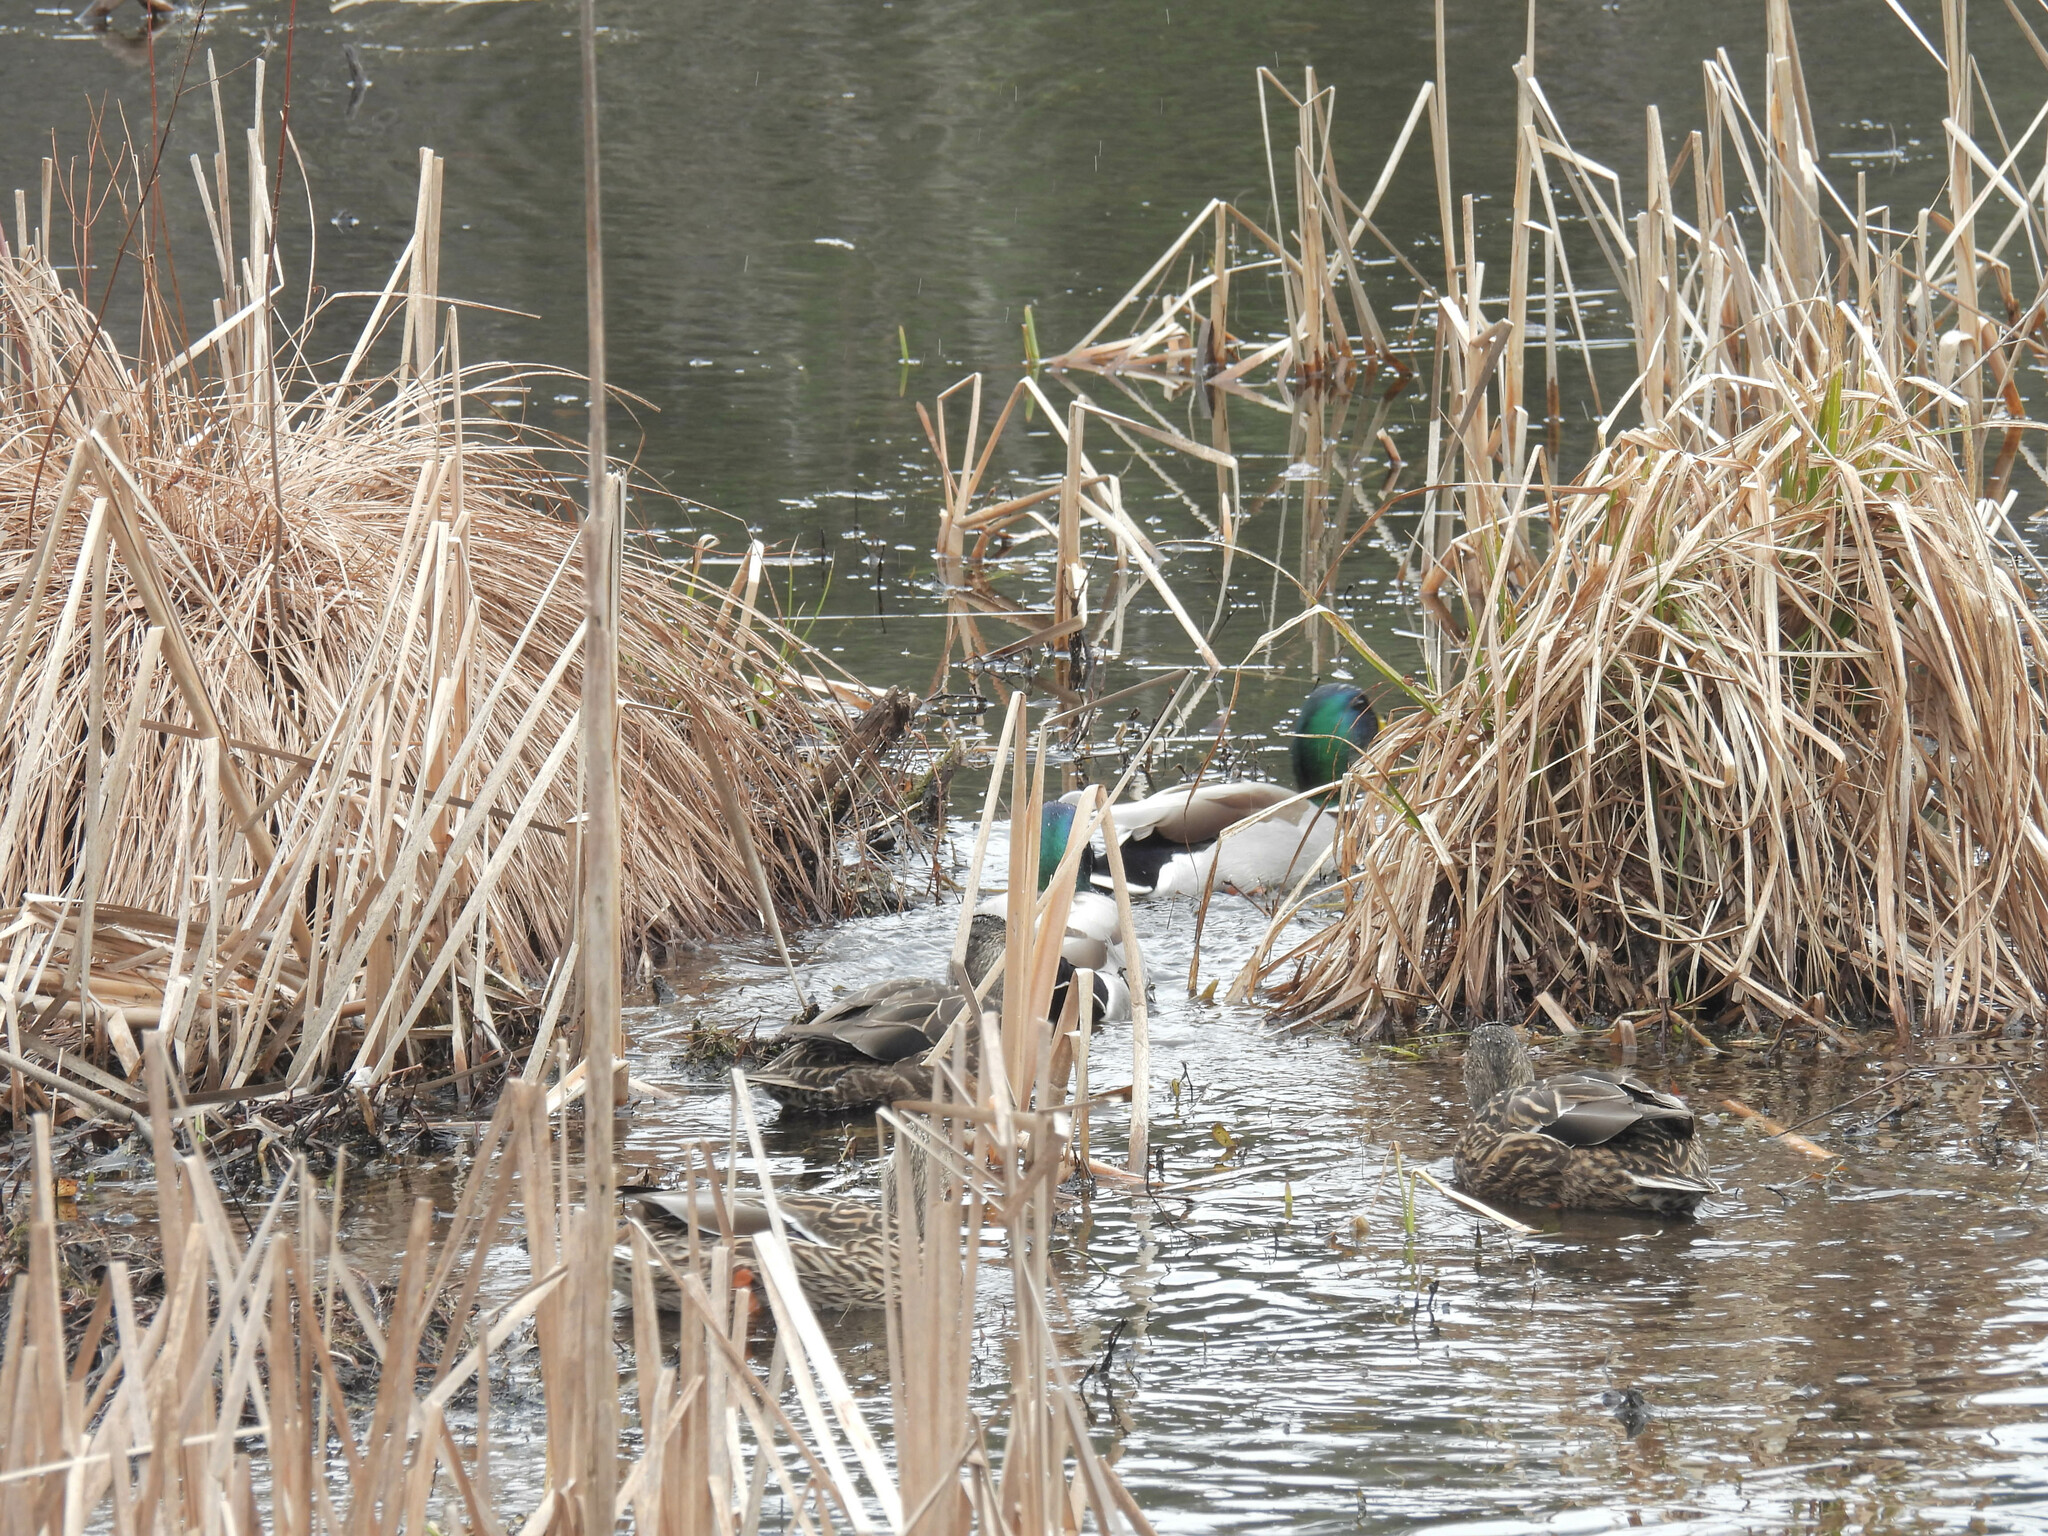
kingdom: Animalia
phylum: Chordata
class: Aves
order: Anseriformes
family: Anatidae
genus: Anas
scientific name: Anas platyrhynchos
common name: Mallard
